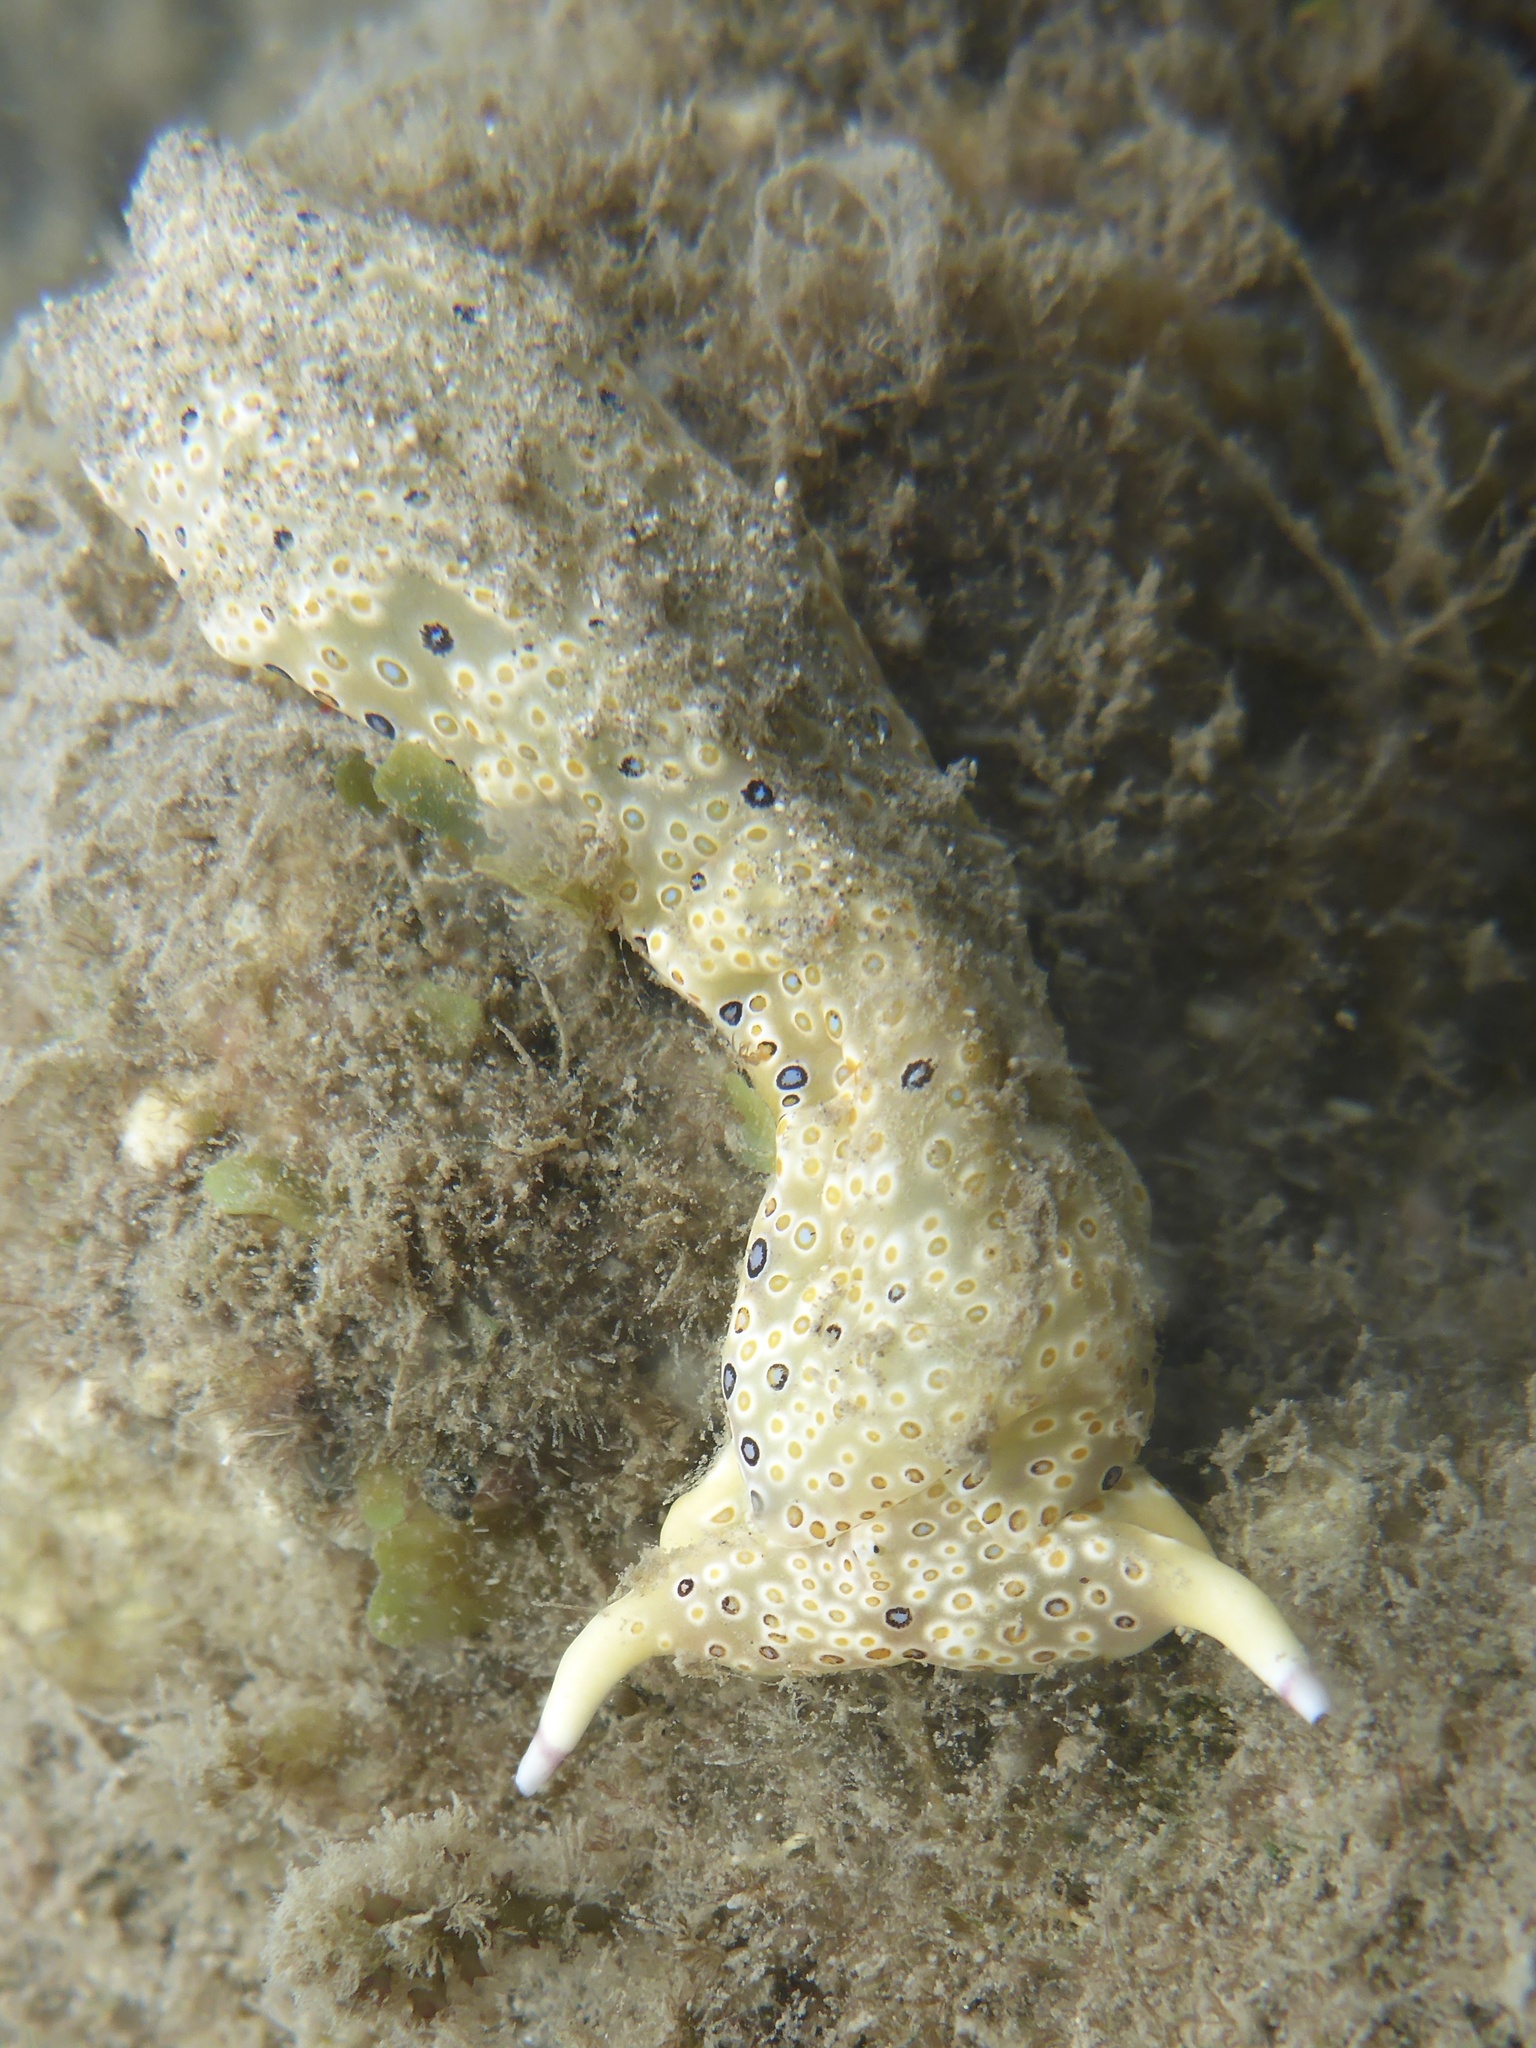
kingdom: Animalia
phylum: Mollusca
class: Gastropoda
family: Plakobranchidae
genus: Plakobranchus
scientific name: Plakobranchus ocellatus
